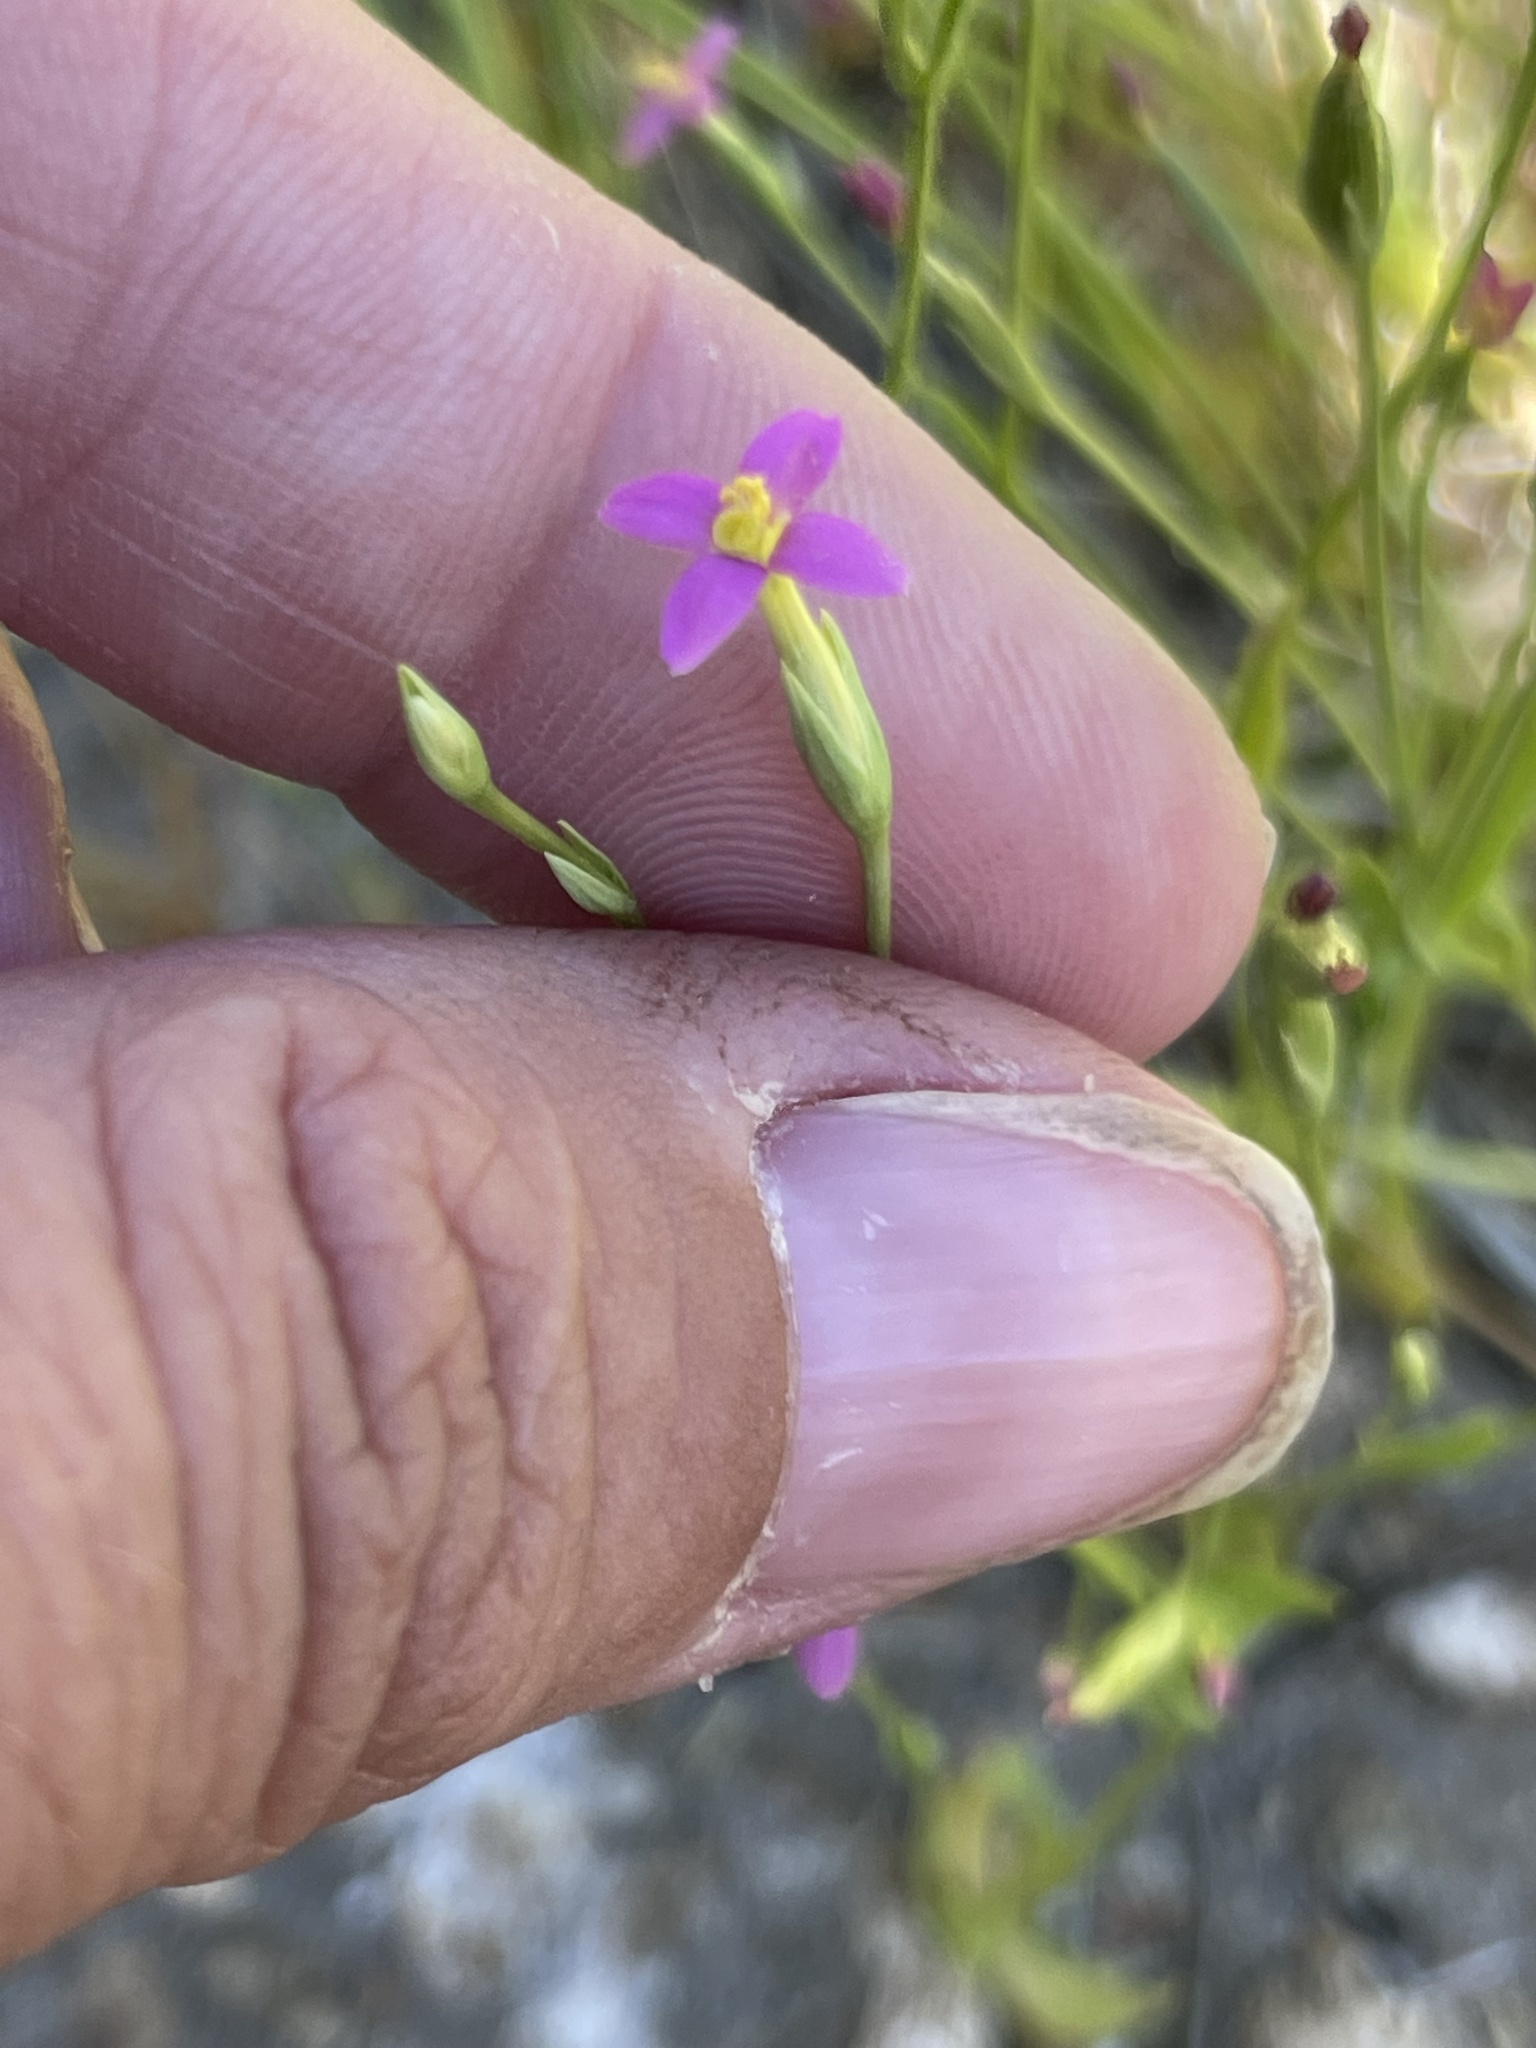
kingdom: Plantae
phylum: Tracheophyta
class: Magnoliopsida
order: Gentianales
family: Gentianaceae
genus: Zeltnera
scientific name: Zeltnera exaltata
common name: Great basin centaury
